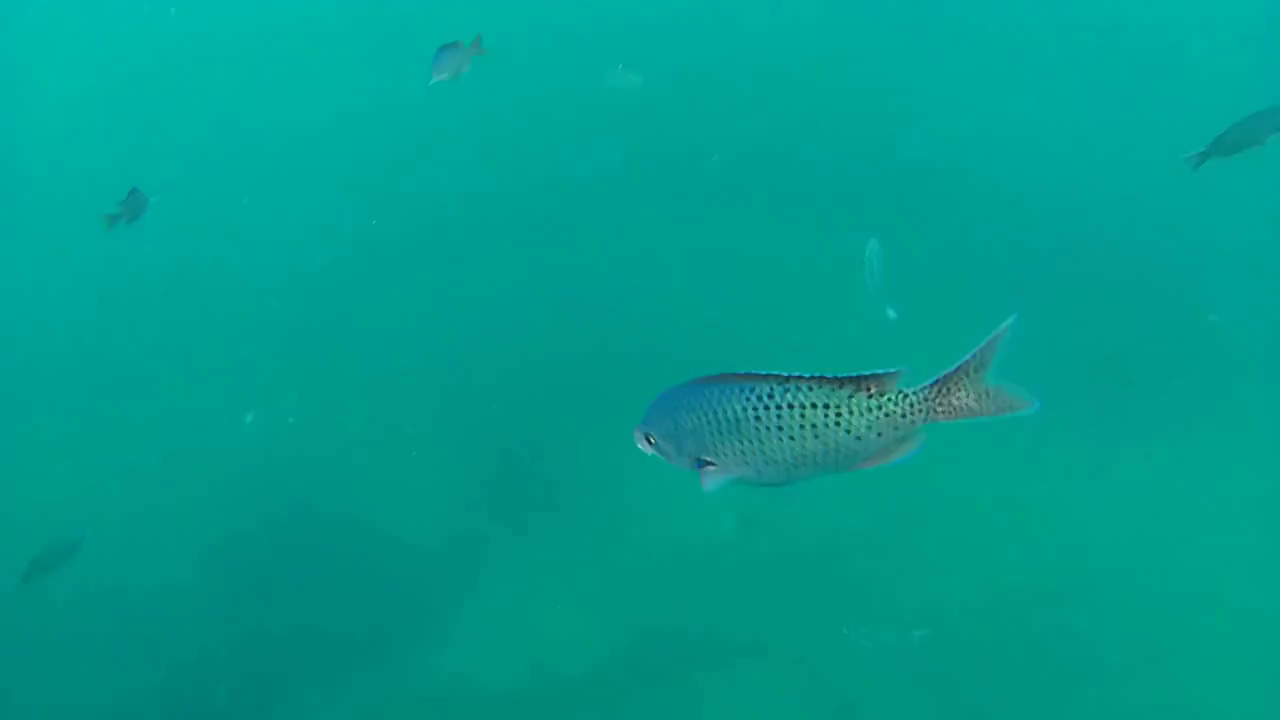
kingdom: Animalia
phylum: Chordata
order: Perciformes
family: Pomacentridae
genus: Chromis
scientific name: Chromis punctipinnis
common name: Blacksmith
